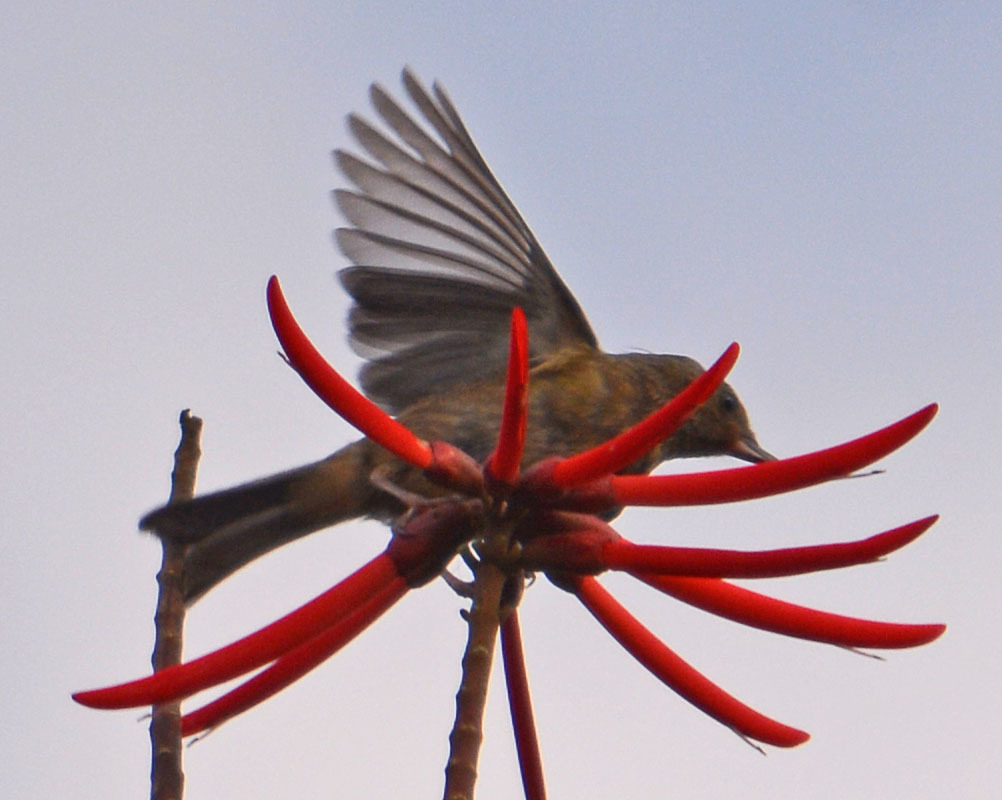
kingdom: Animalia
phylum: Chordata
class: Aves
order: Passeriformes
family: Thraupidae
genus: Diglossa
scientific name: Diglossa baritula
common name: Cinnamon-bellied flowerpiercer
